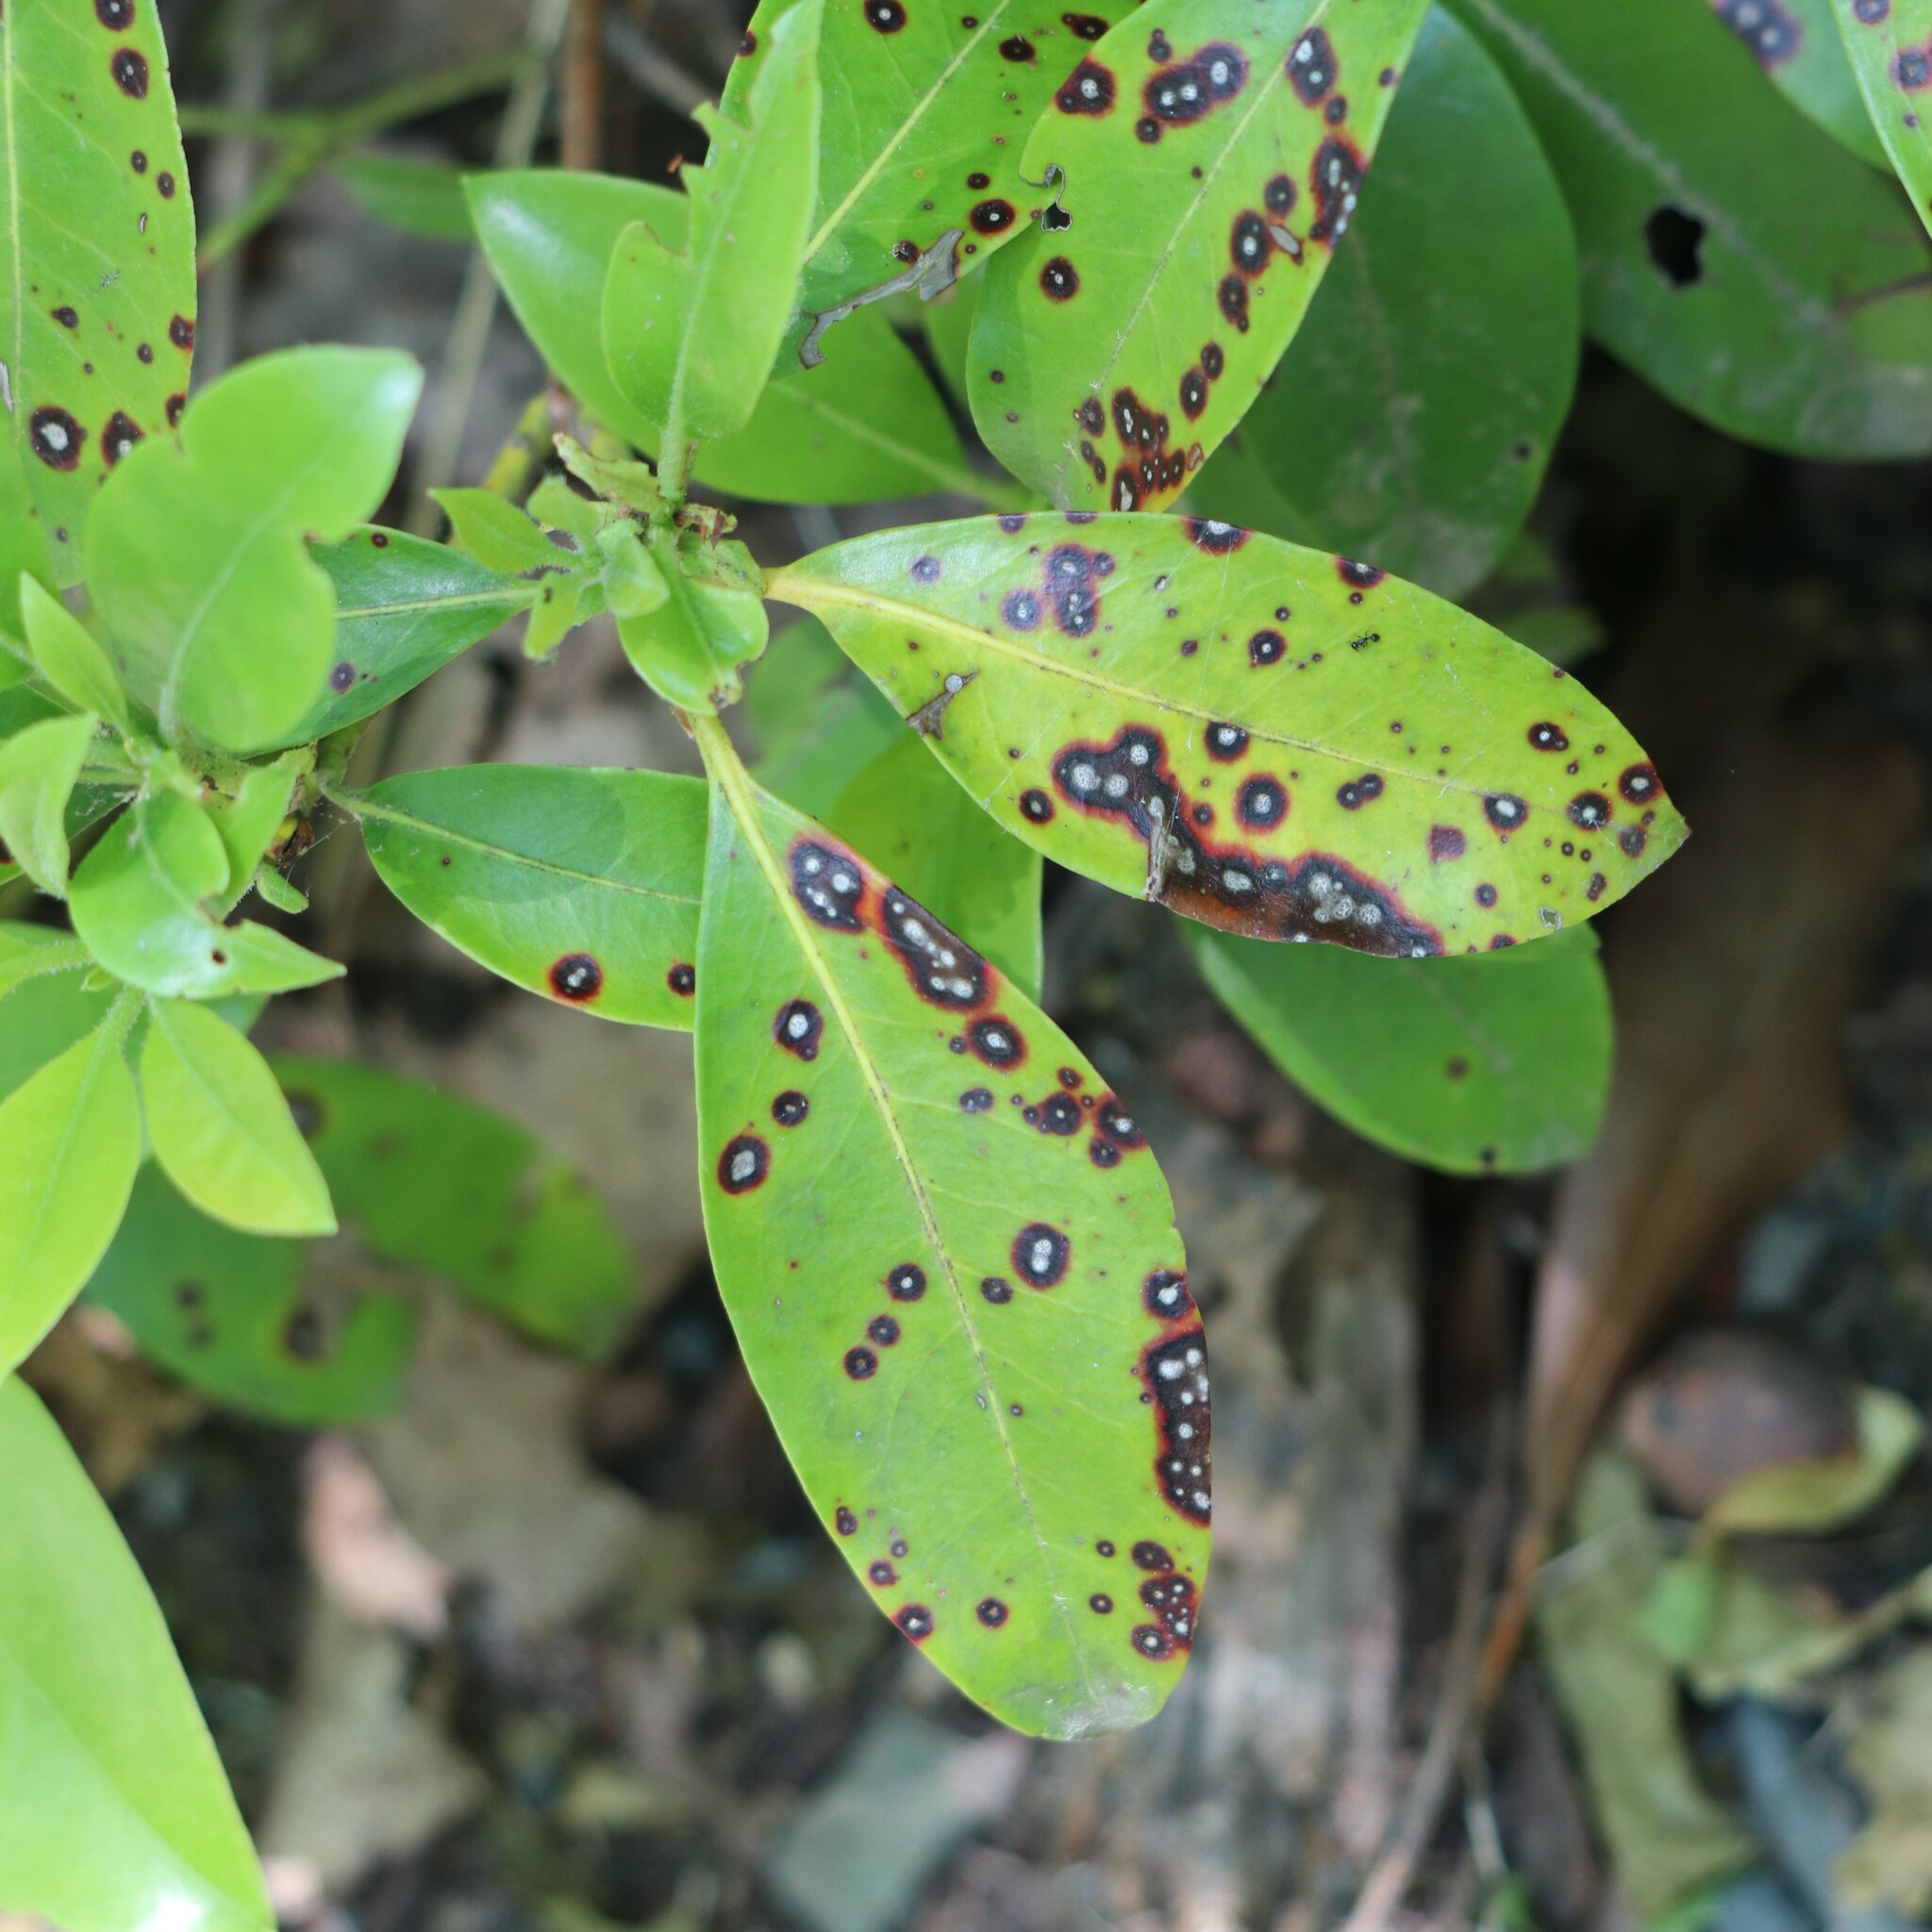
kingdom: Fungi
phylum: Ascomycota
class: Dothideomycetes
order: Mycosphaerellales
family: Mycosphaerellaceae
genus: Mycosphaerella
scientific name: Mycosphaerella colorata
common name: Mountain laurel leaf spot
